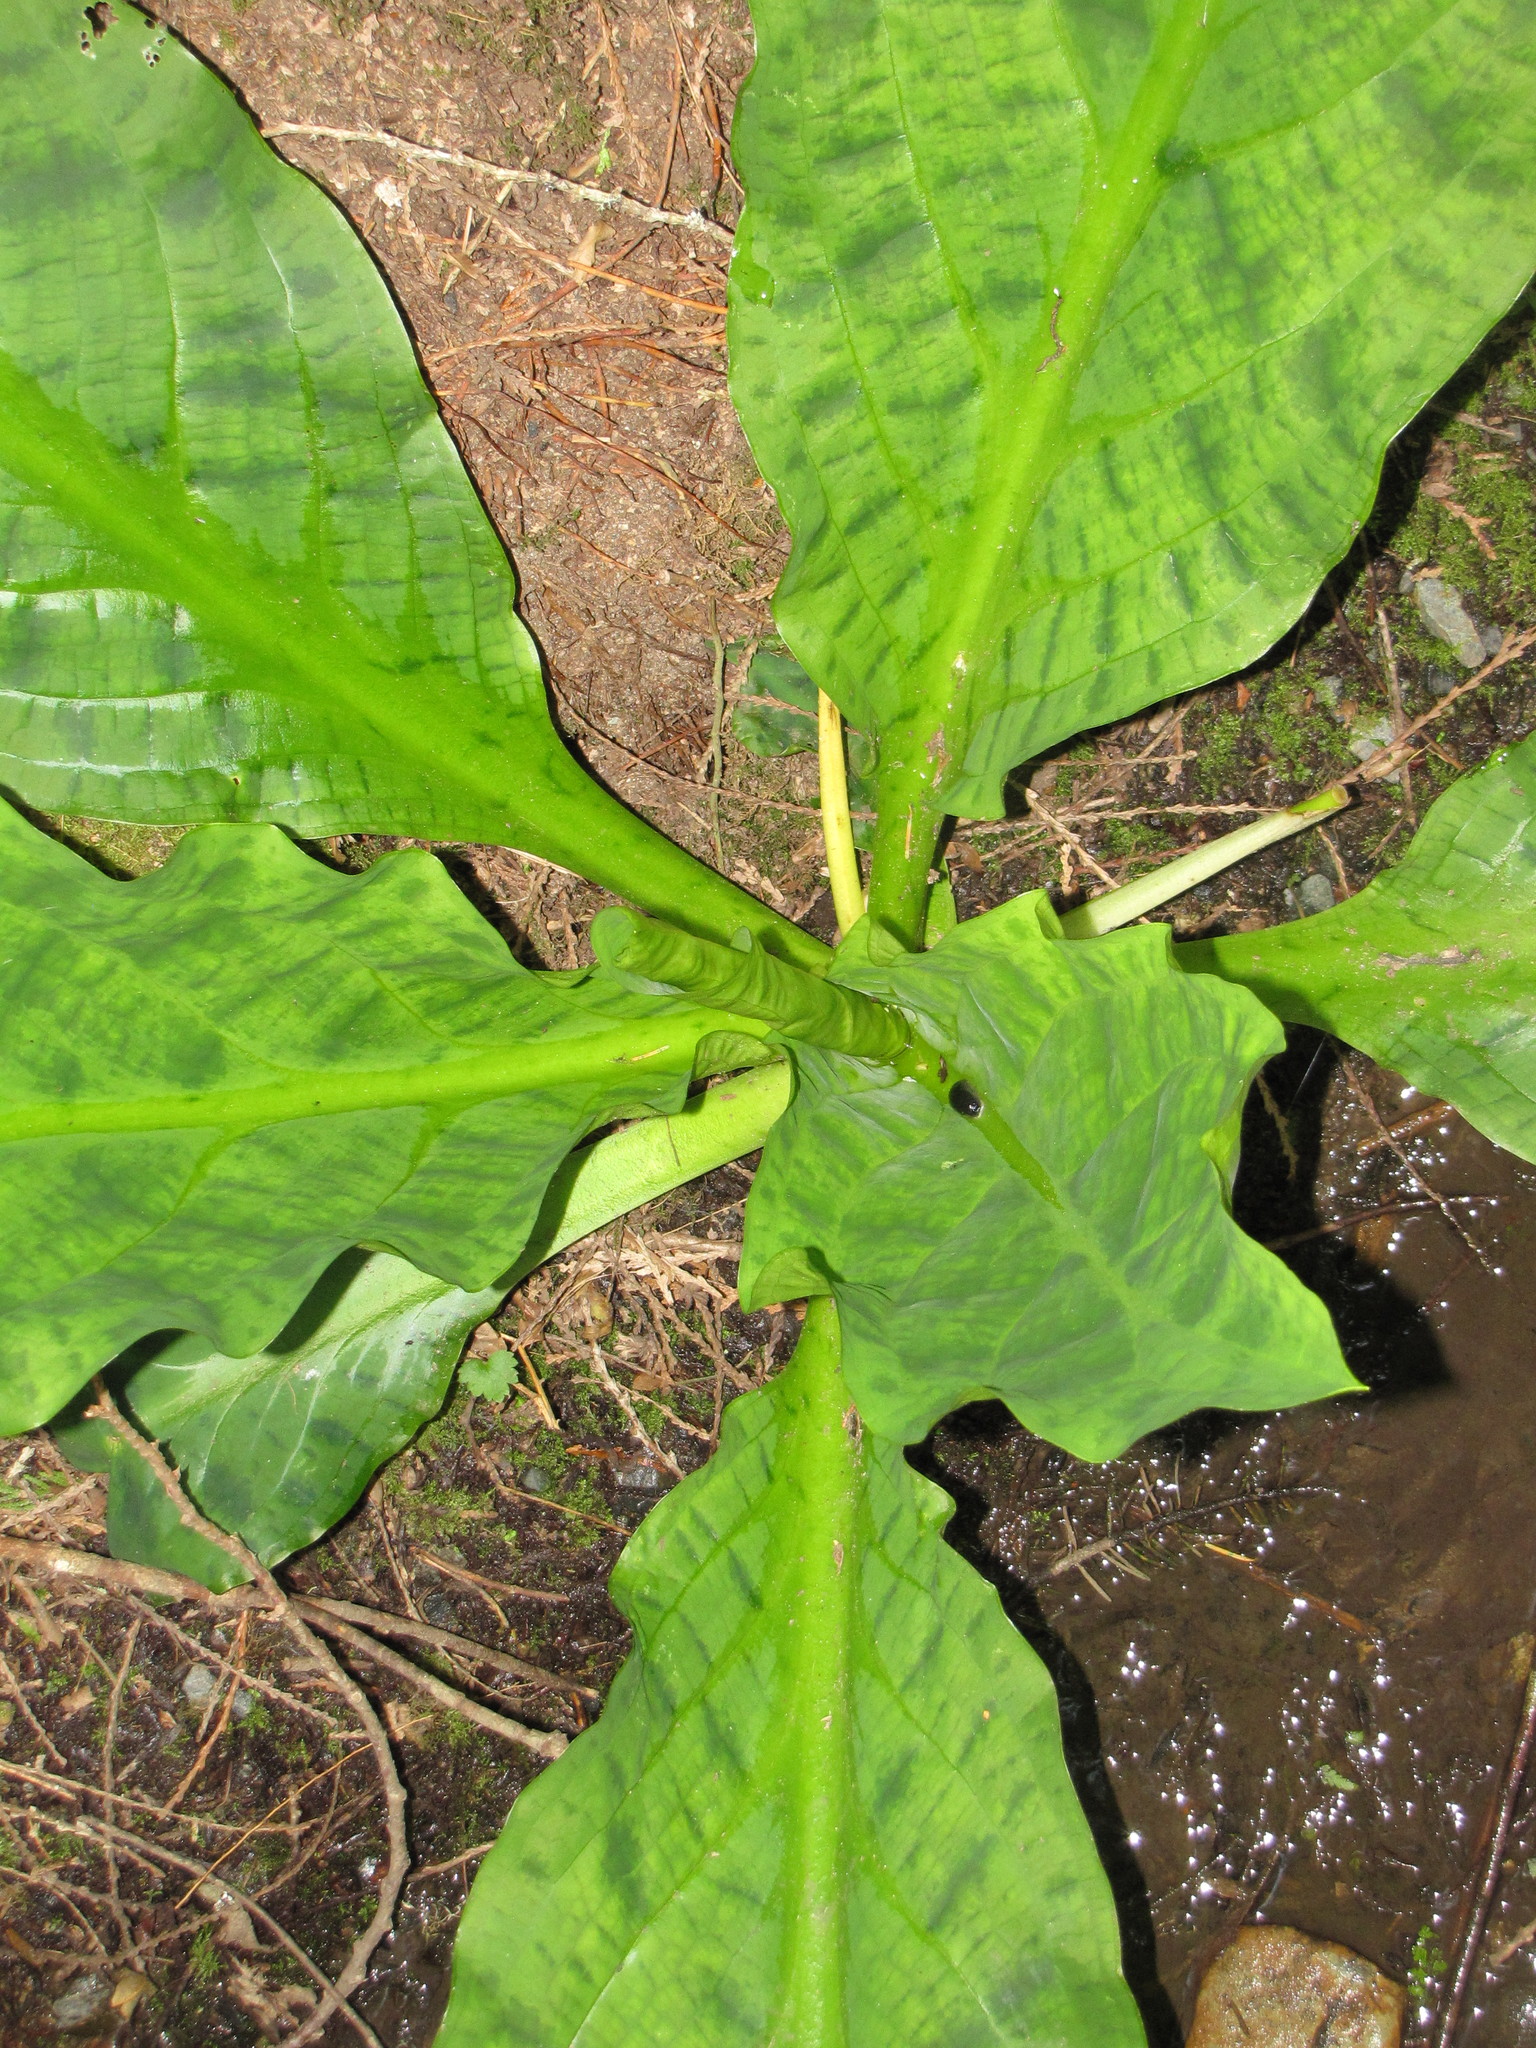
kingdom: Plantae
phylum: Tracheophyta
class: Liliopsida
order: Alismatales
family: Araceae
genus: Lysichiton
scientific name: Lysichiton americanus
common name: American skunk cabbage
